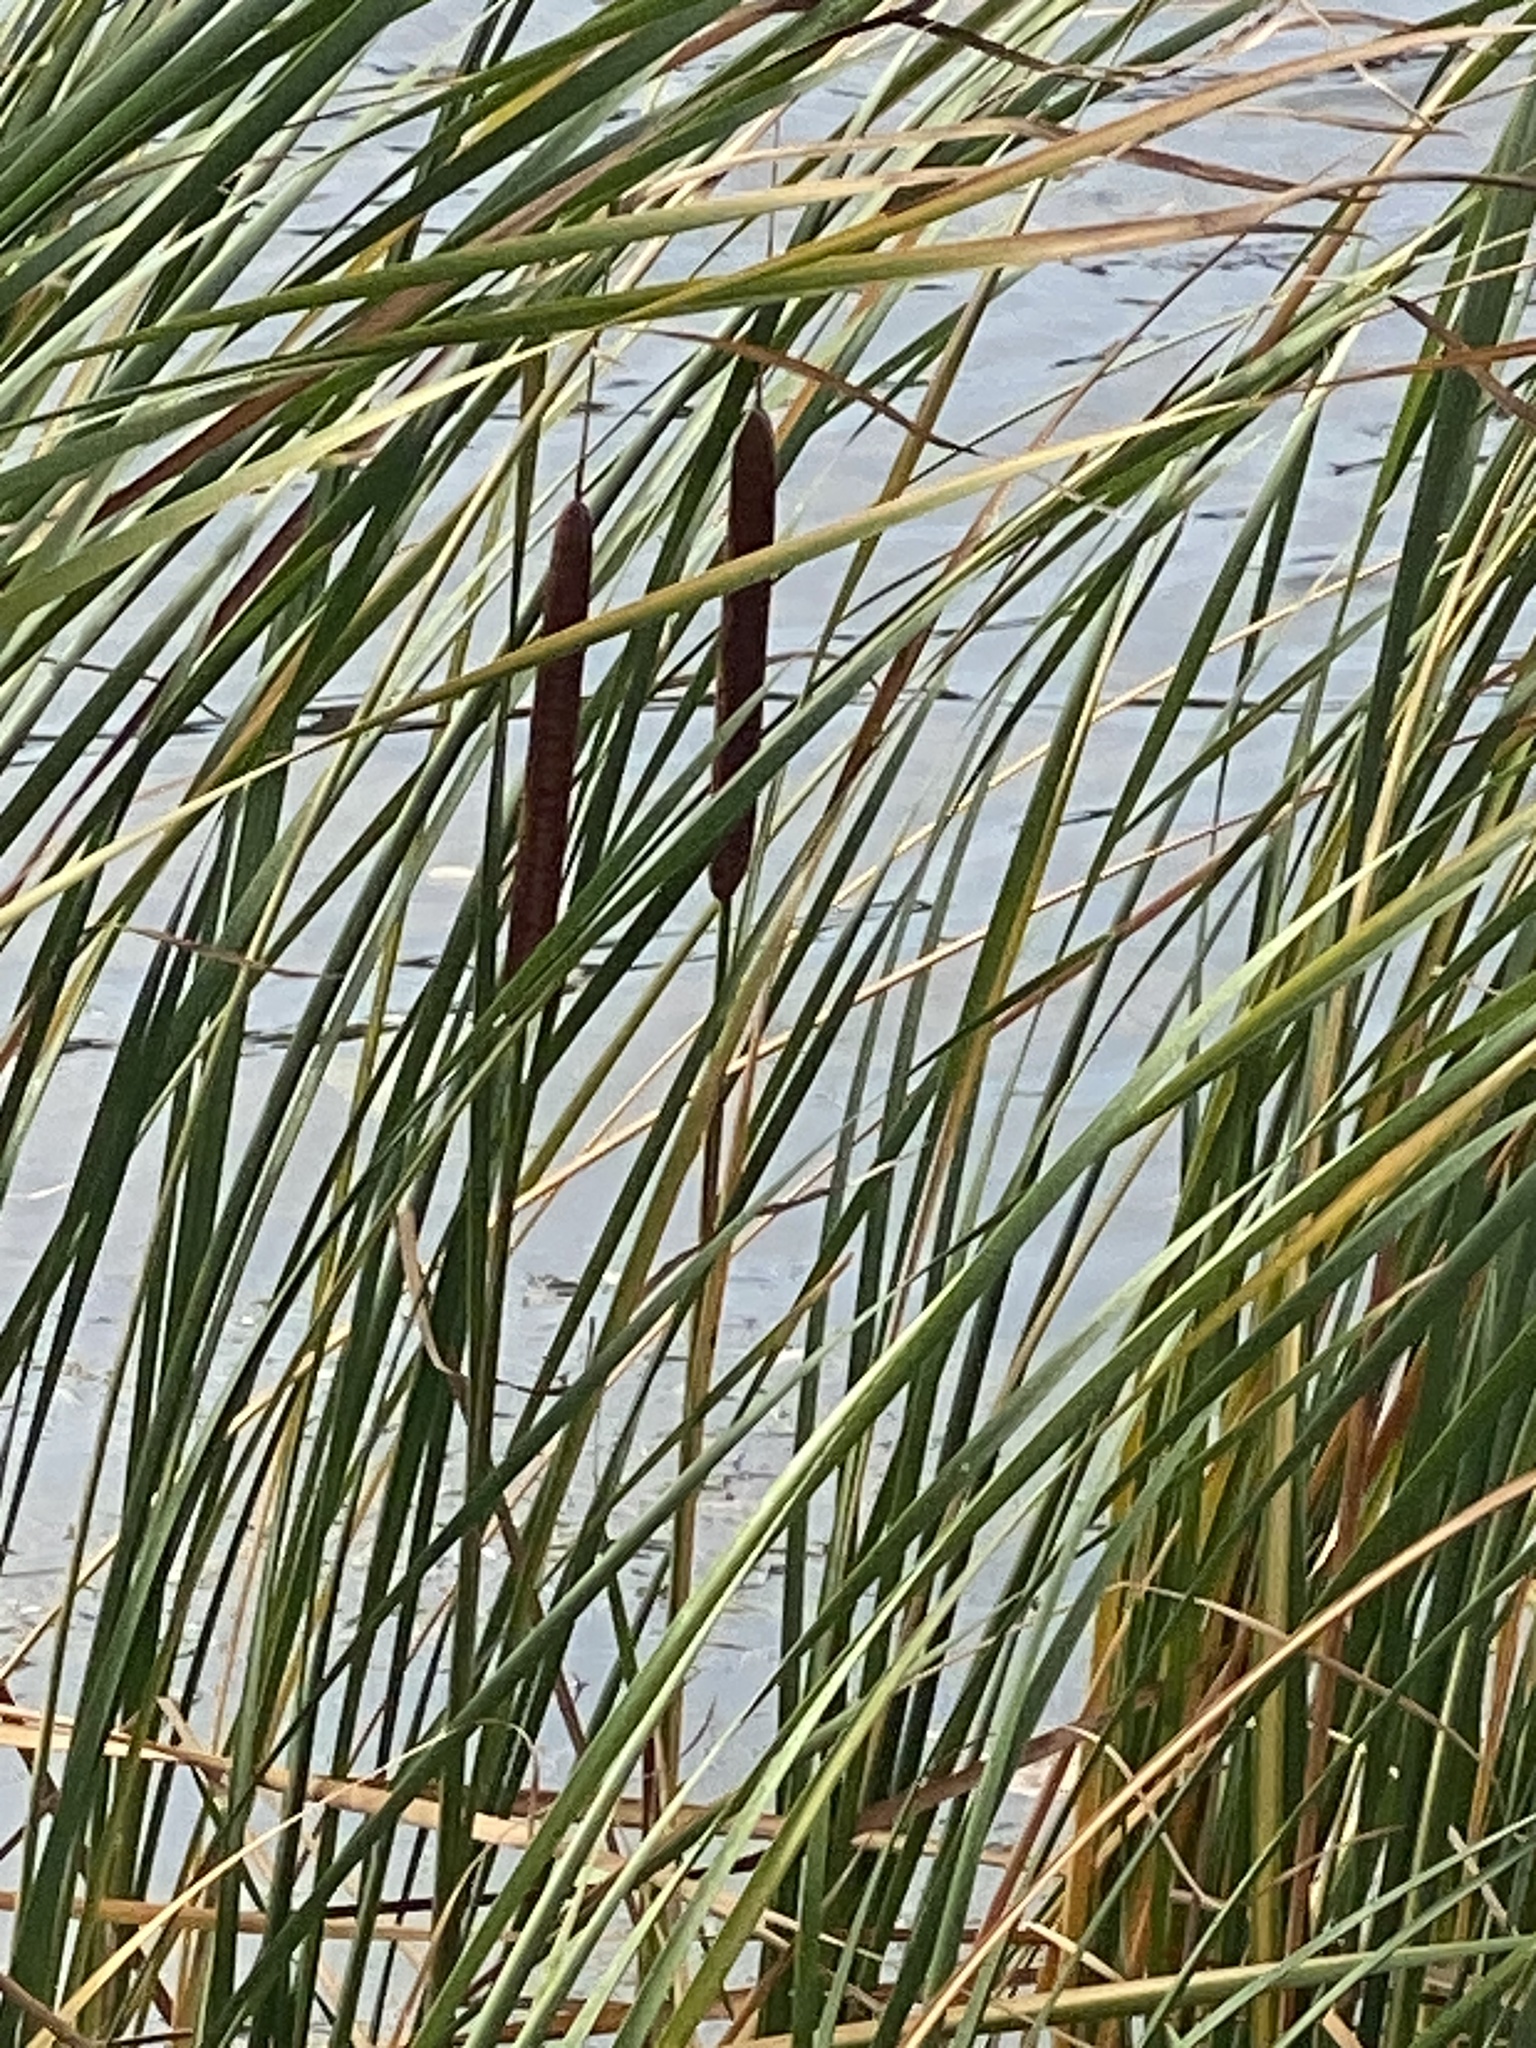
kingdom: Plantae
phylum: Tracheophyta
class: Liliopsida
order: Poales
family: Typhaceae
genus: Typha
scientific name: Typha angustifolia
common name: Lesser bulrush
